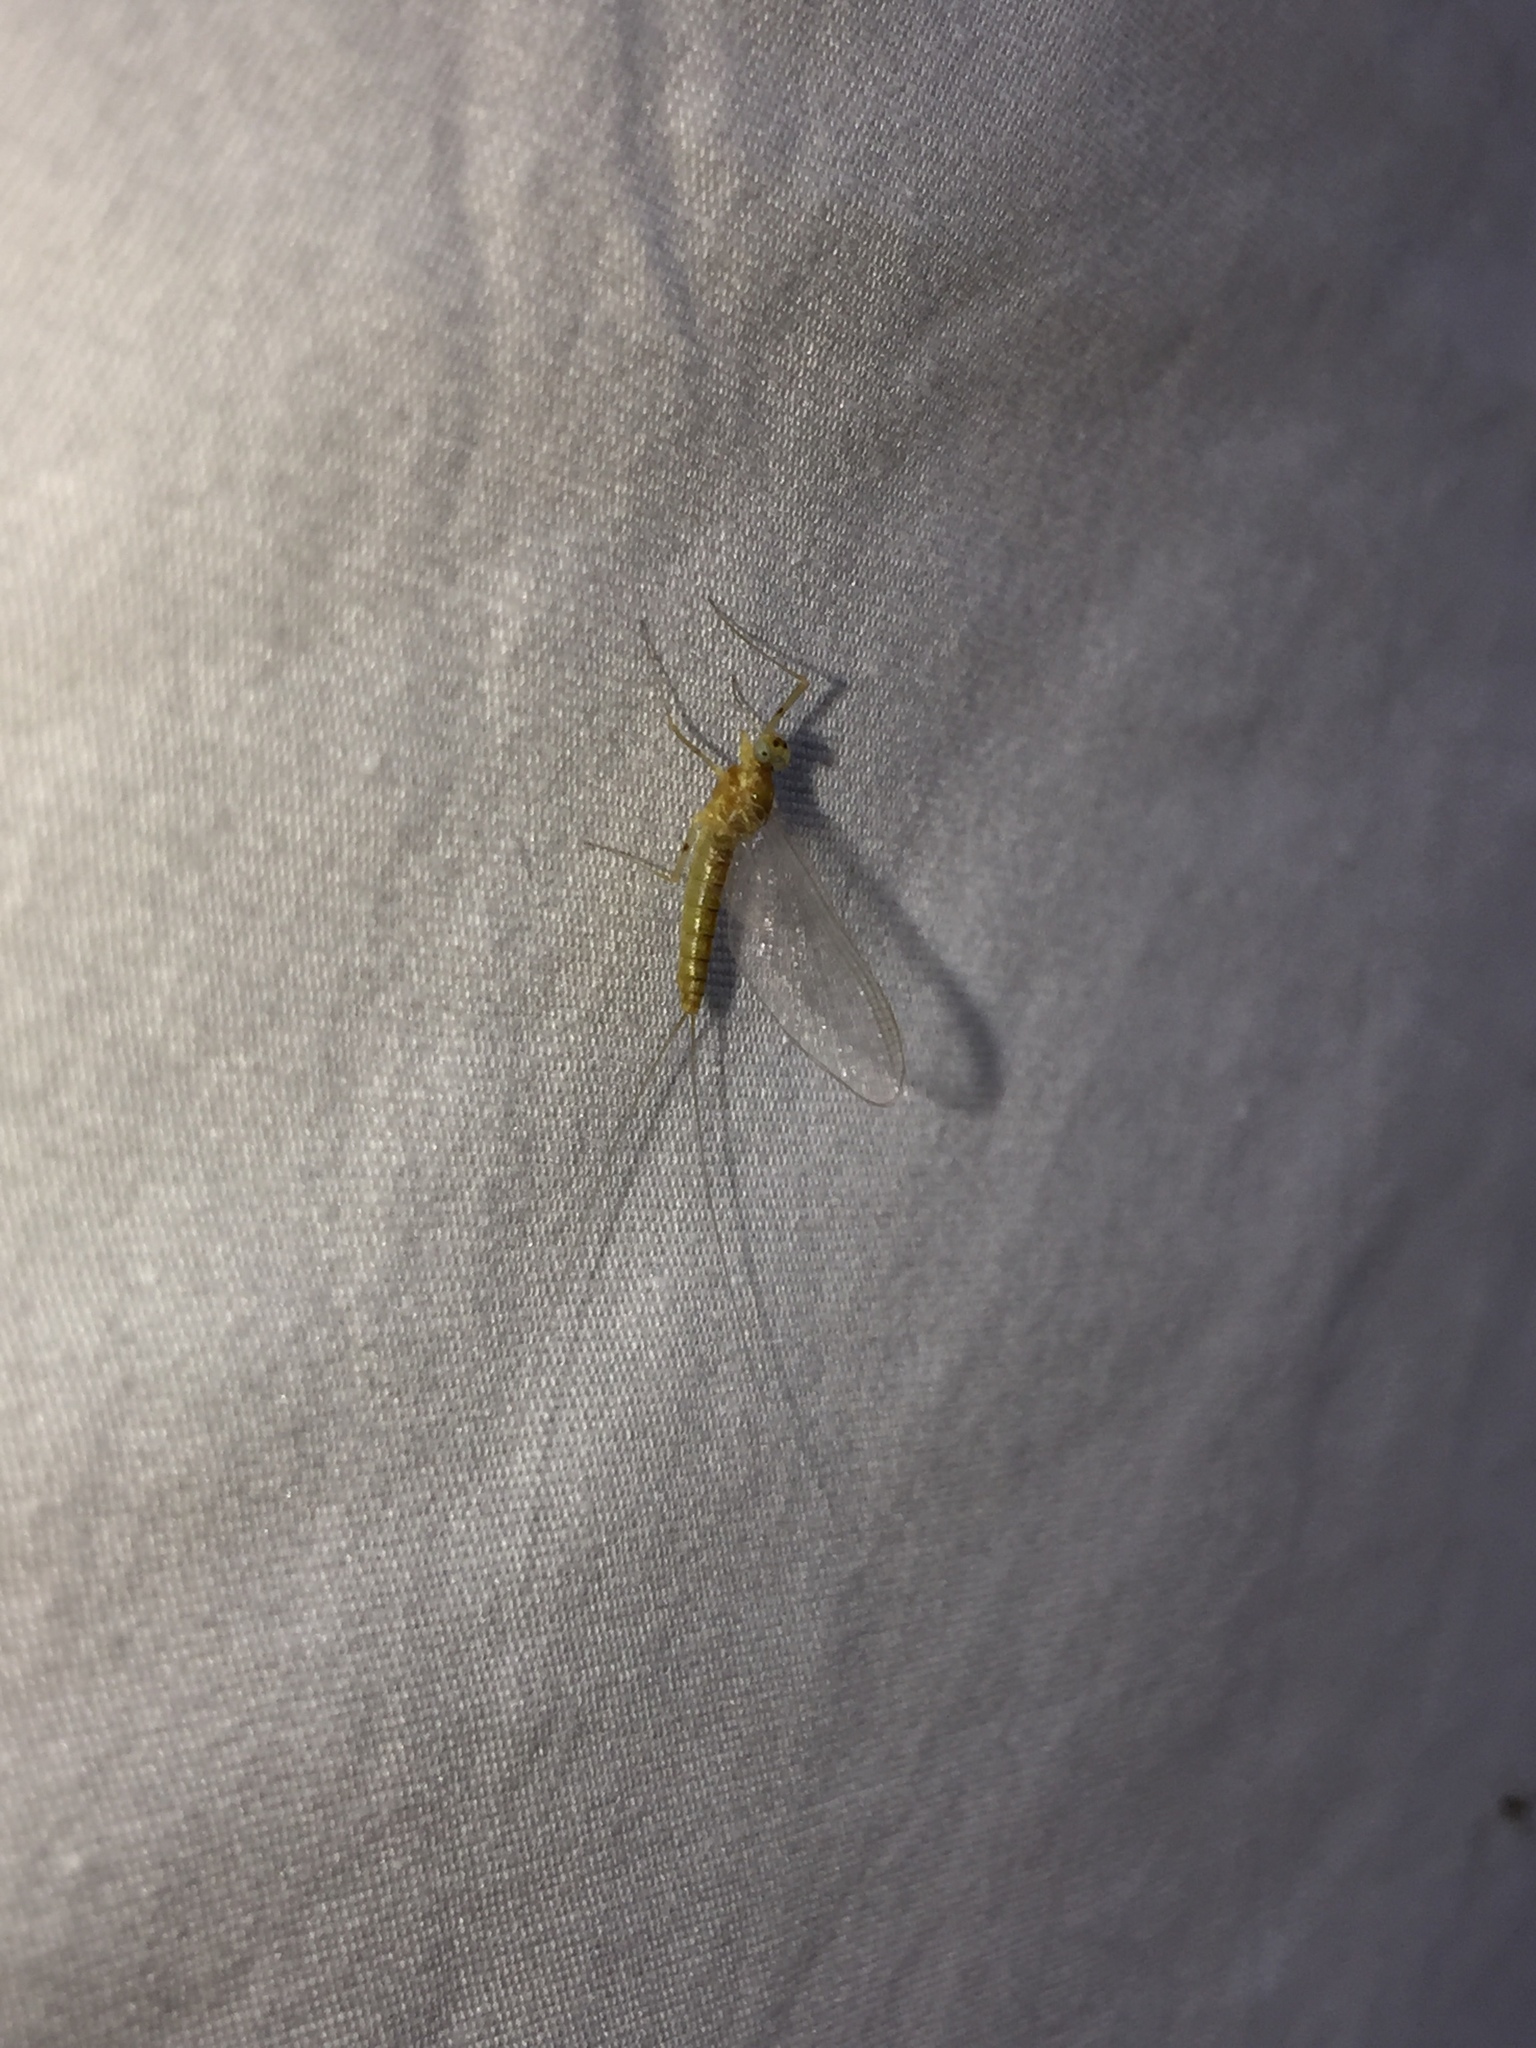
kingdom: Animalia
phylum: Arthropoda
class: Insecta
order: Ephemeroptera
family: Heptageniidae
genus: Epeorus
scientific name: Epeorus frisoni
